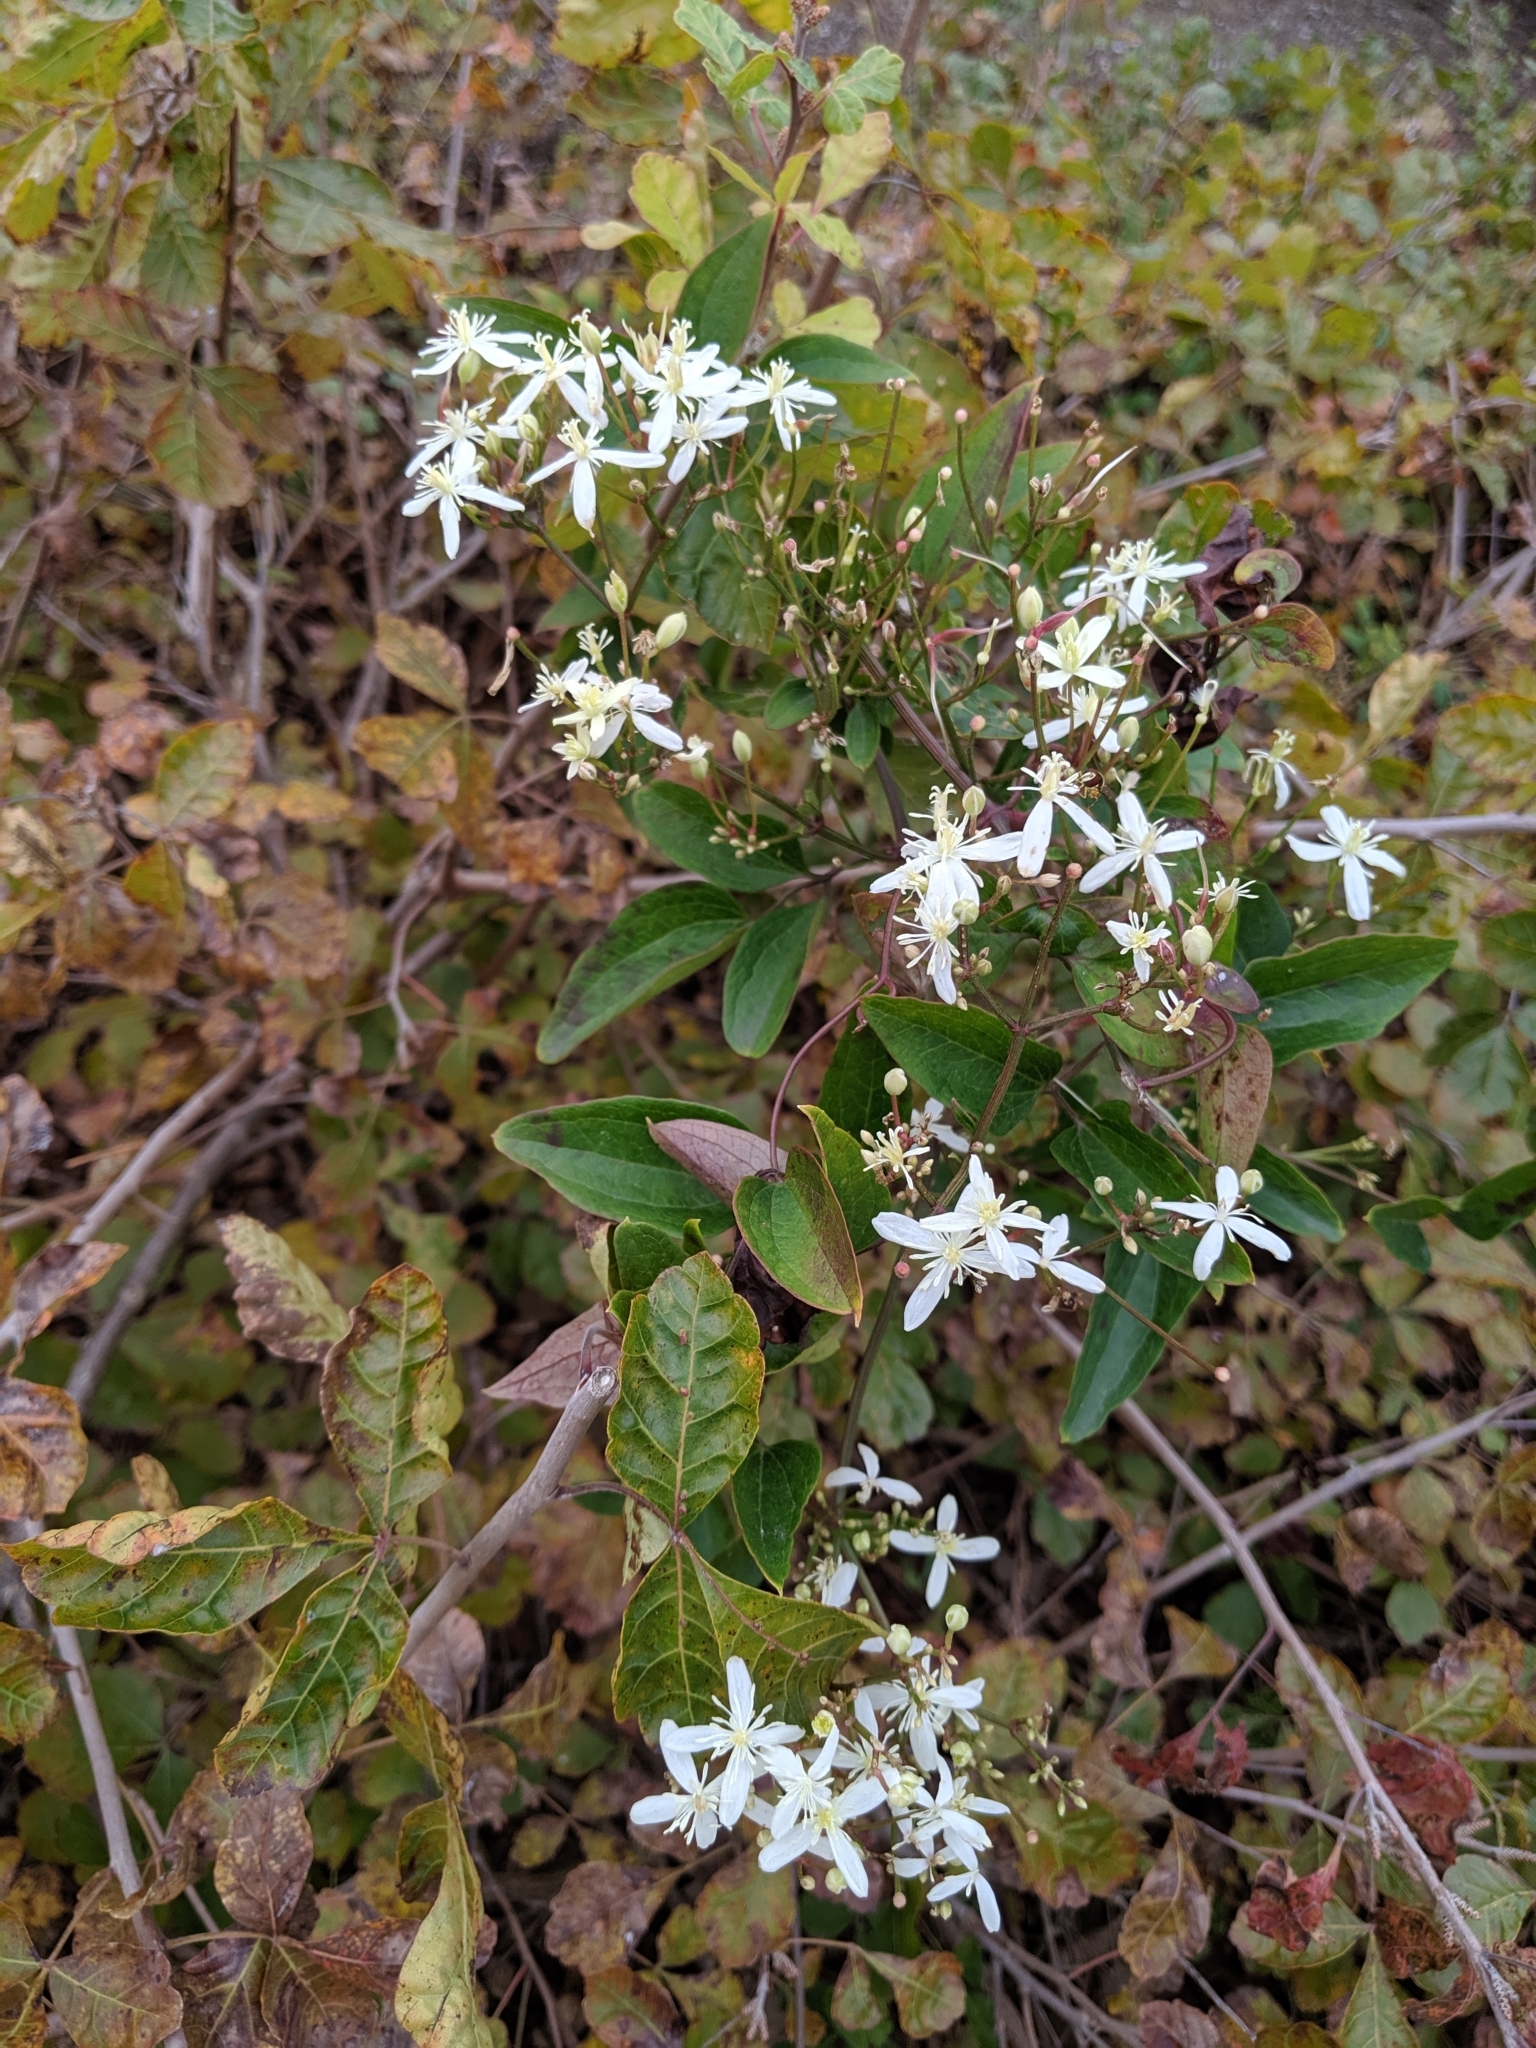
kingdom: Plantae
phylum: Tracheophyta
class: Magnoliopsida
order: Ranunculales
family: Ranunculaceae
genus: Clematis
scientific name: Clematis terniflora
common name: Sweet autumn clematis
